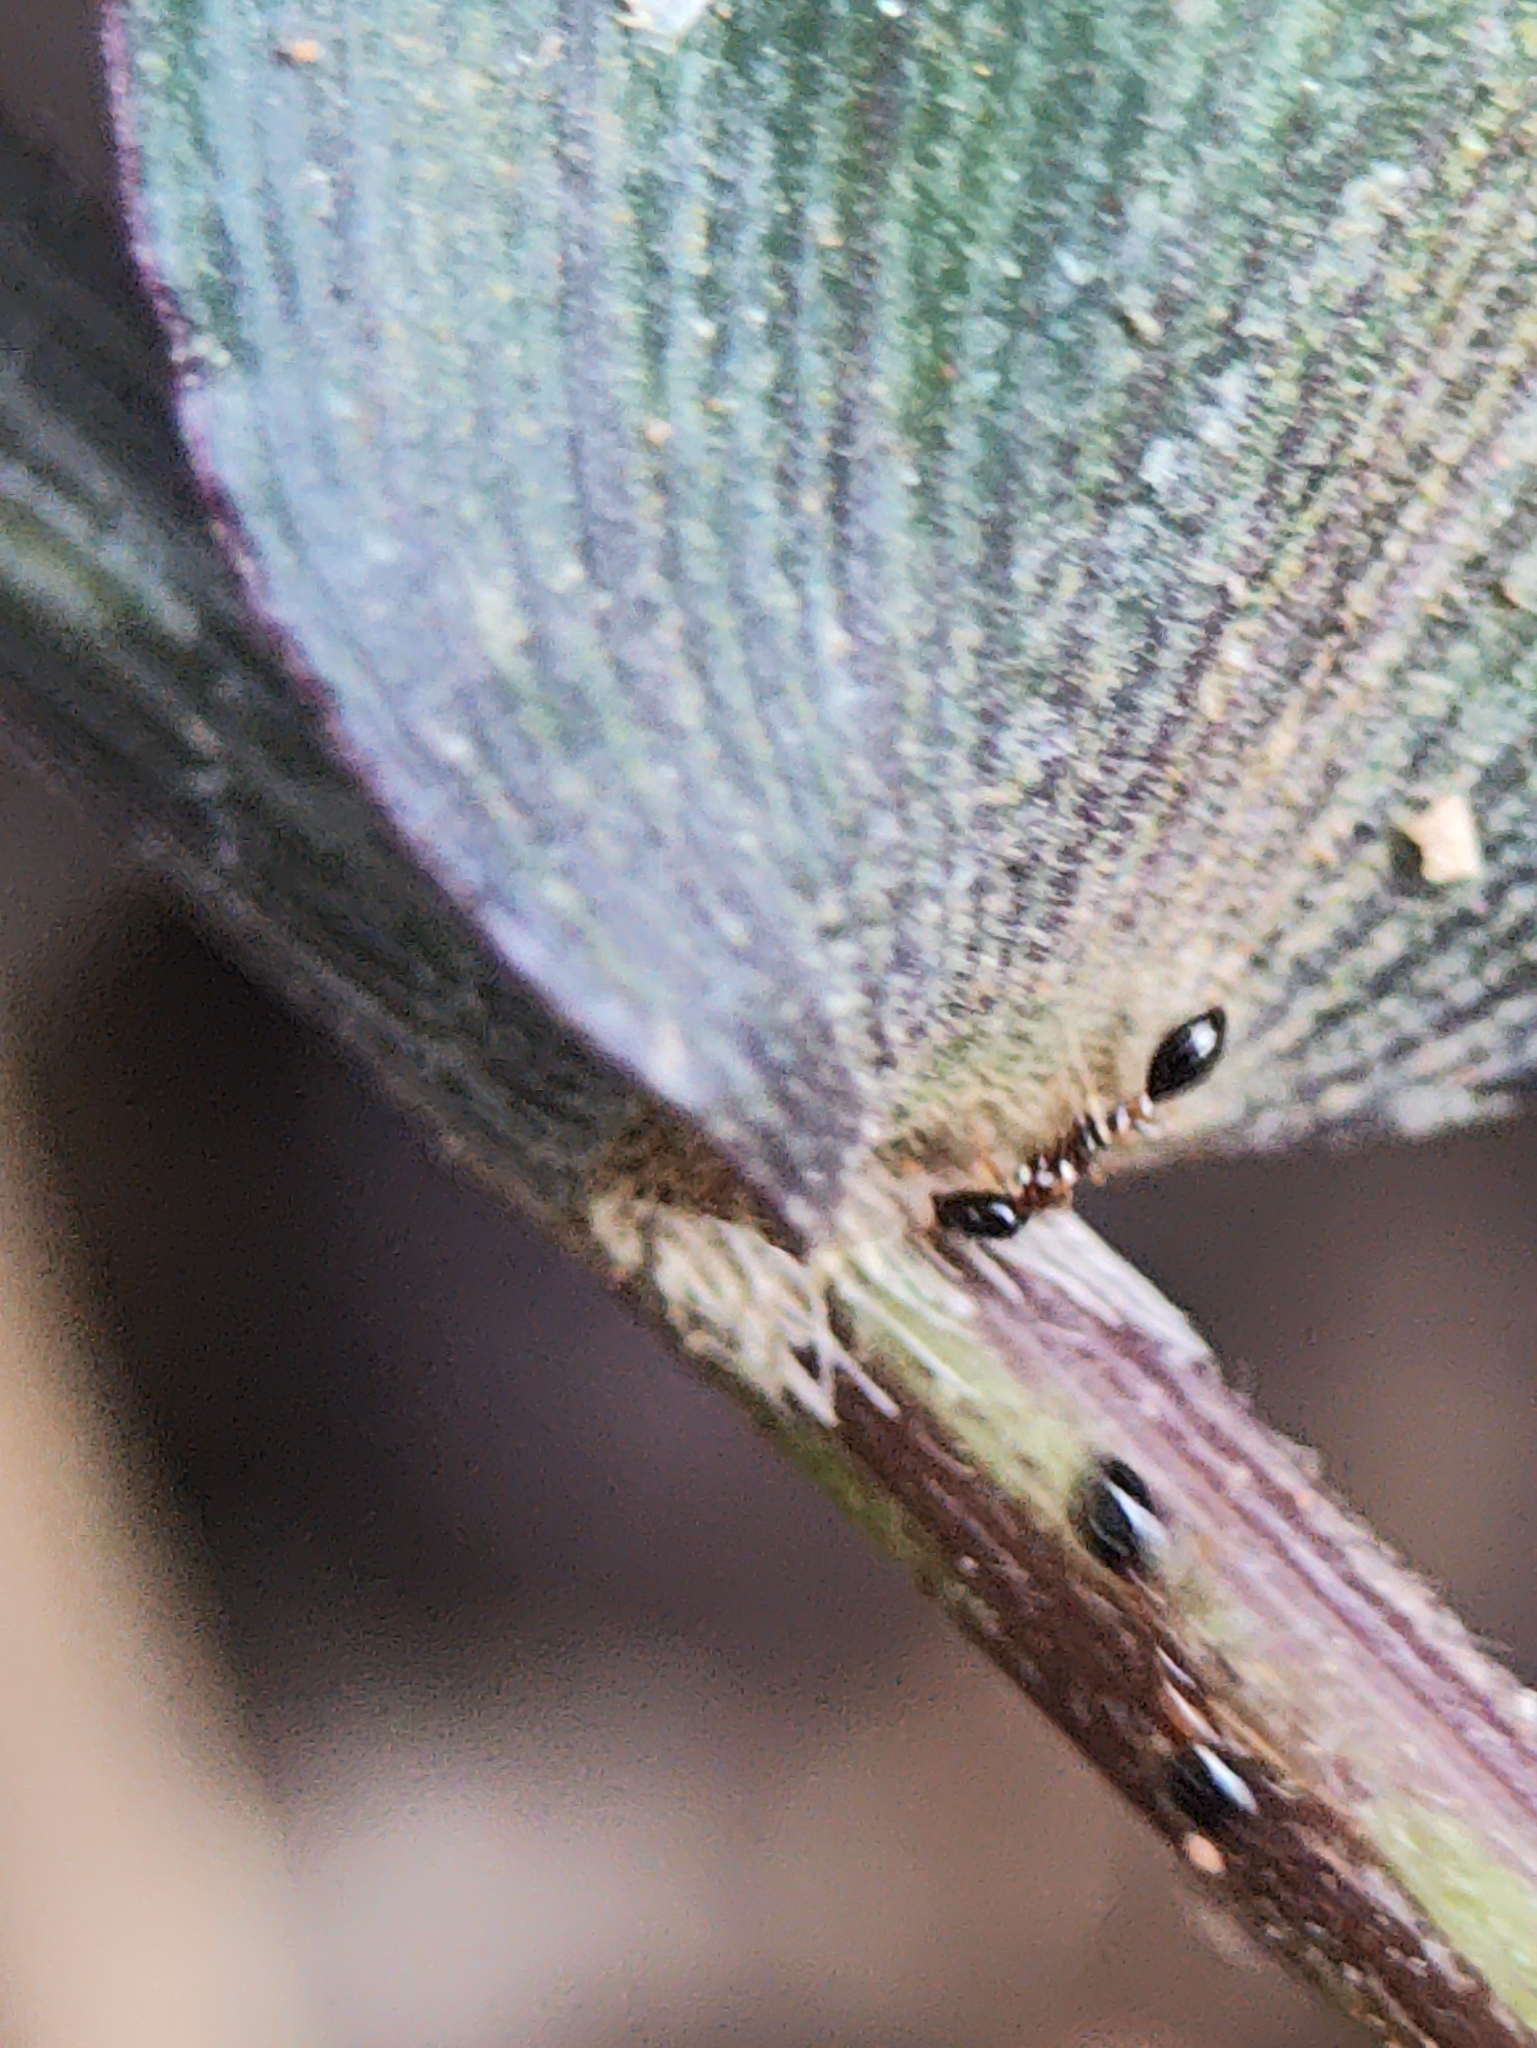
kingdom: Animalia
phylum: Arthropoda
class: Insecta
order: Hymenoptera
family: Formicidae
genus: Monomorium
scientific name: Monomorium floricola
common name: Bicolored trailing ant
